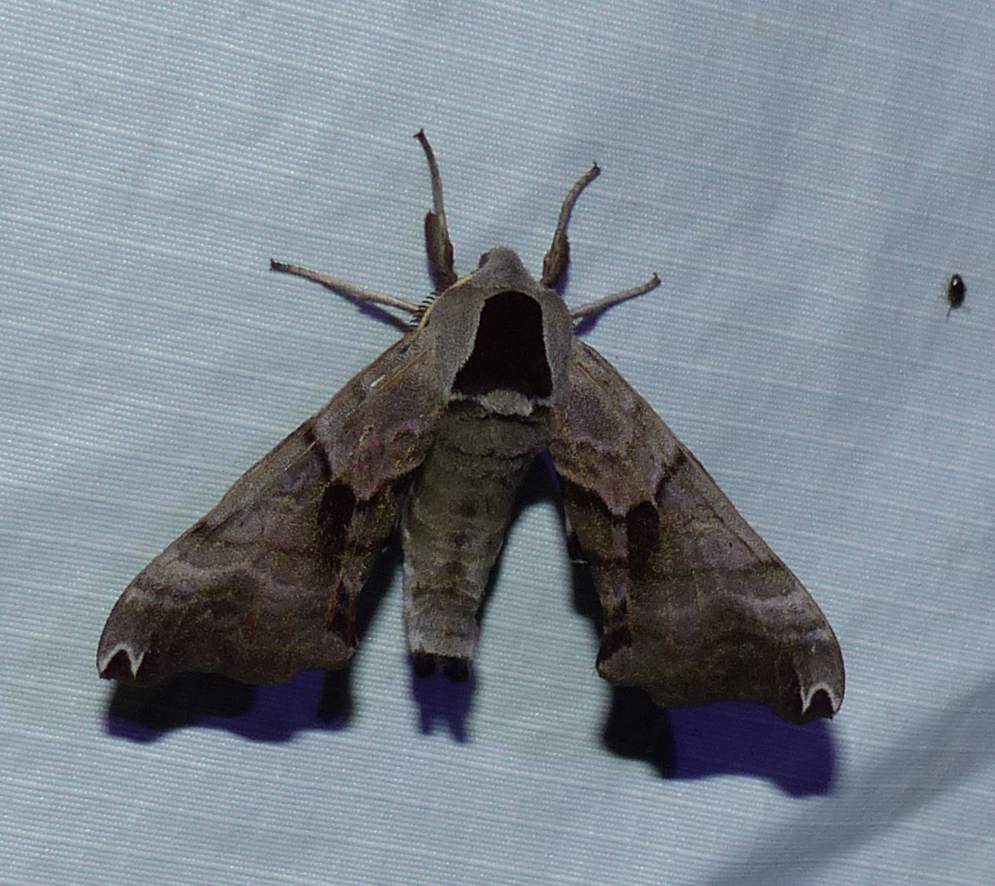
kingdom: Animalia
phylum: Arthropoda
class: Insecta
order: Lepidoptera
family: Sphingidae
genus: Smerinthus
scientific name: Smerinthus jamaicensis
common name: Twin spotted sphinx
